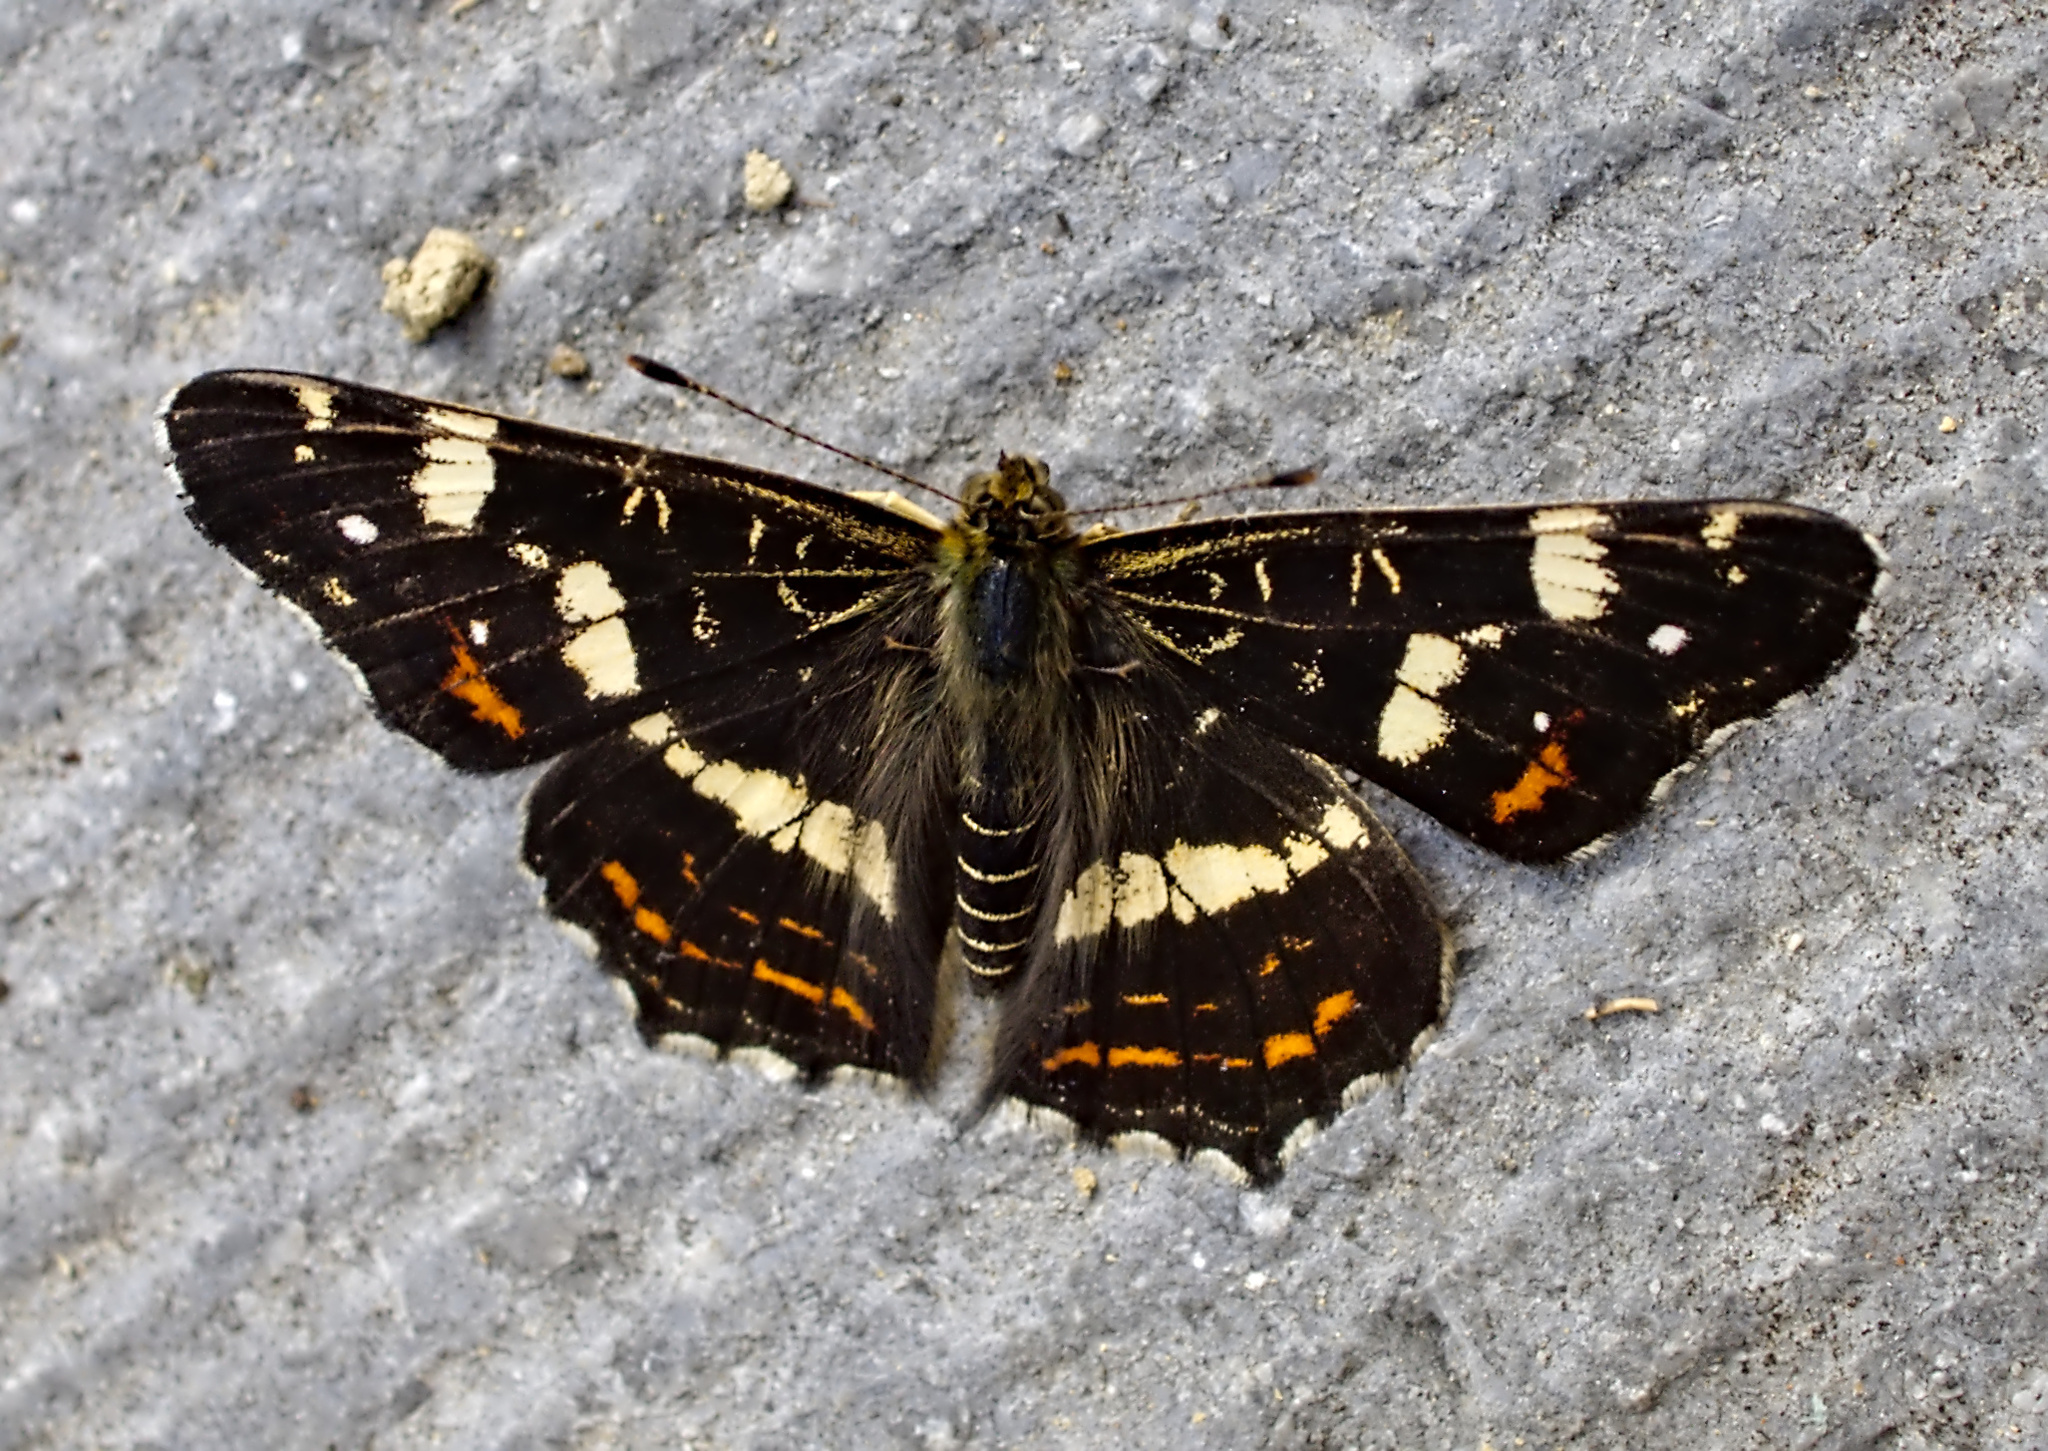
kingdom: Animalia
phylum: Arthropoda
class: Insecta
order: Lepidoptera
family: Nymphalidae
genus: Araschnia
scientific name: Araschnia levana
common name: Map butterfly
